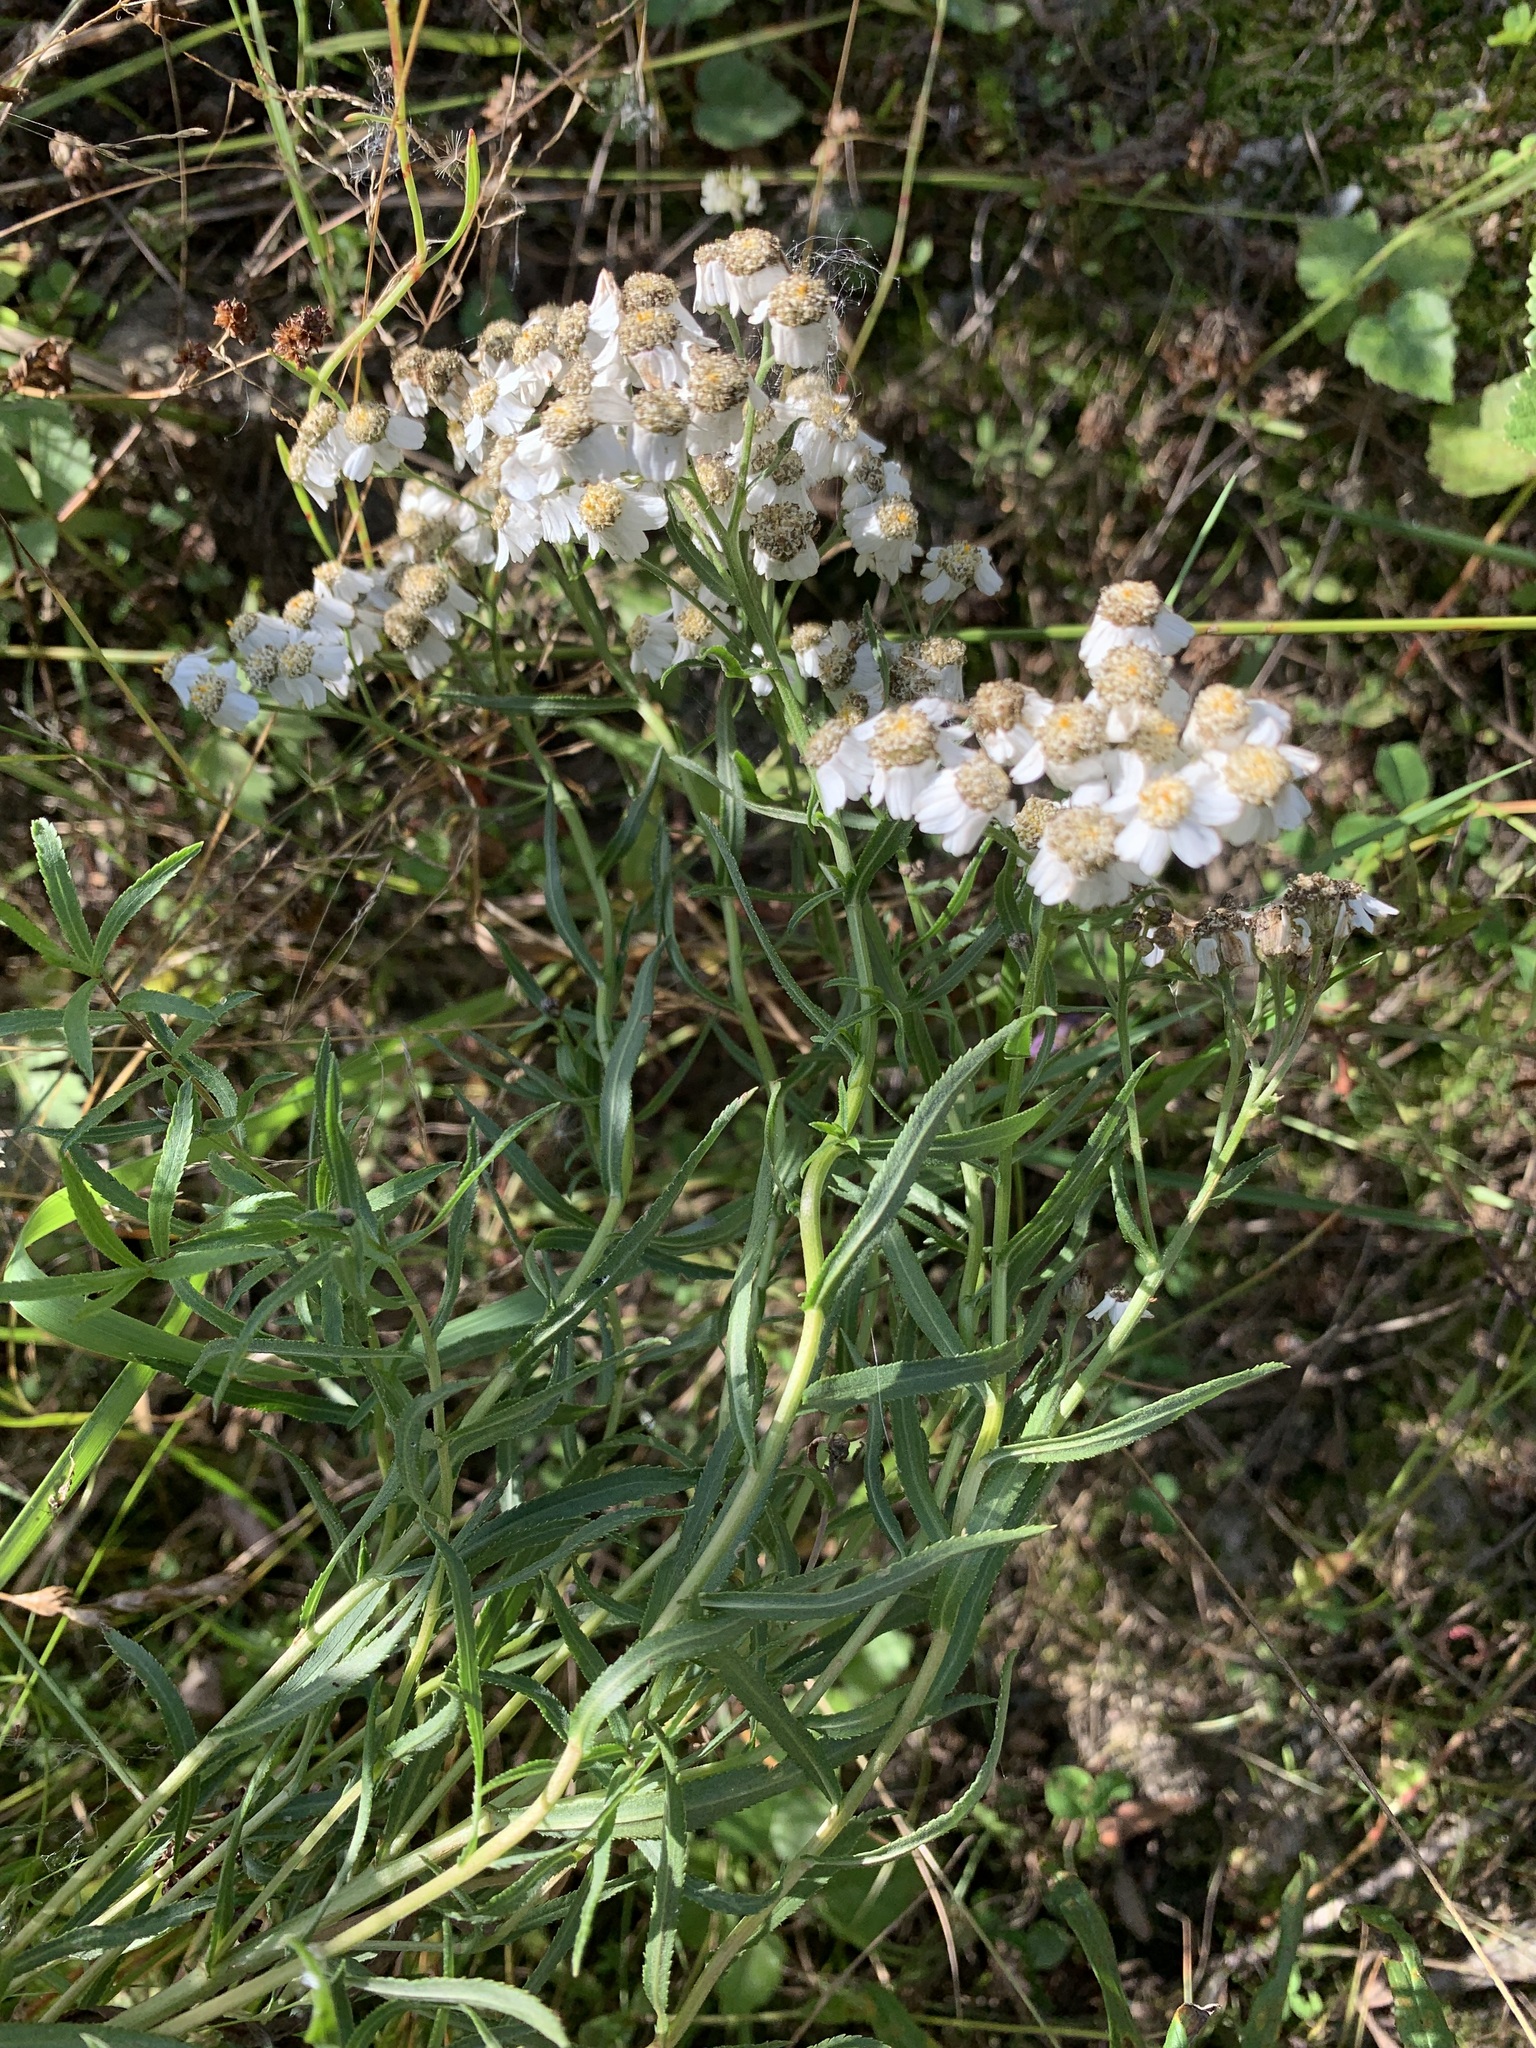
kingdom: Plantae
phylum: Tracheophyta
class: Magnoliopsida
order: Asterales
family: Asteraceae
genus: Achillea
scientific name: Achillea salicifolia
